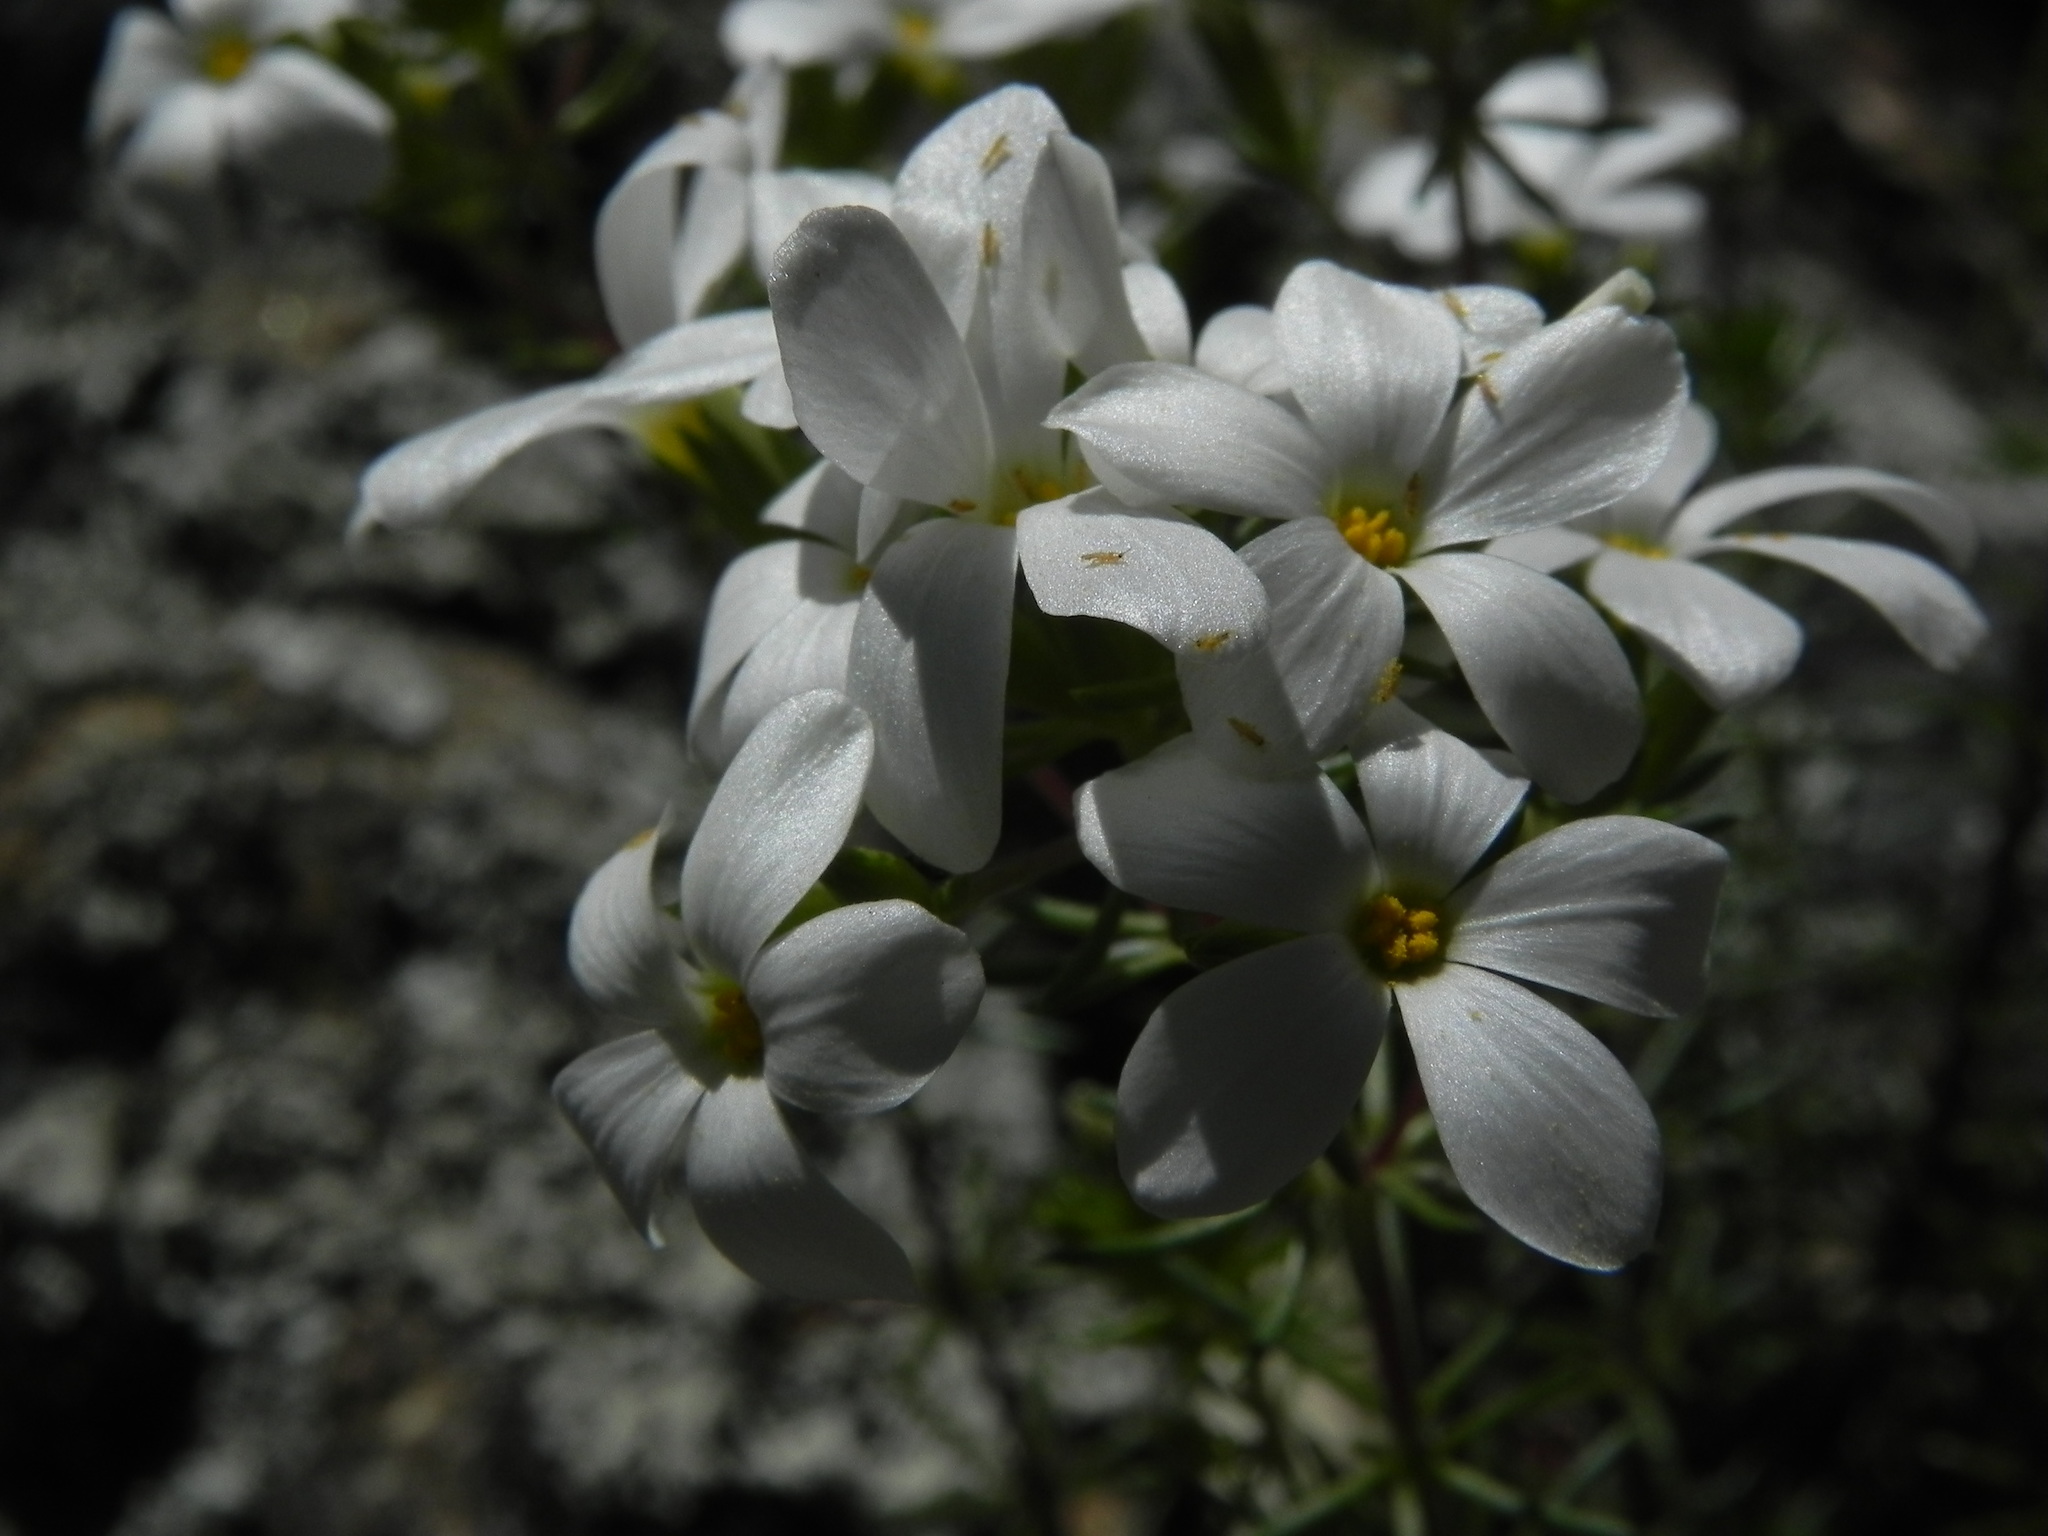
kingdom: Plantae
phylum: Tracheophyta
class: Magnoliopsida
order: Ericales
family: Polemoniaceae
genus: Leptosiphon
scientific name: Leptosiphon floribundum
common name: Many-flower linanthus
